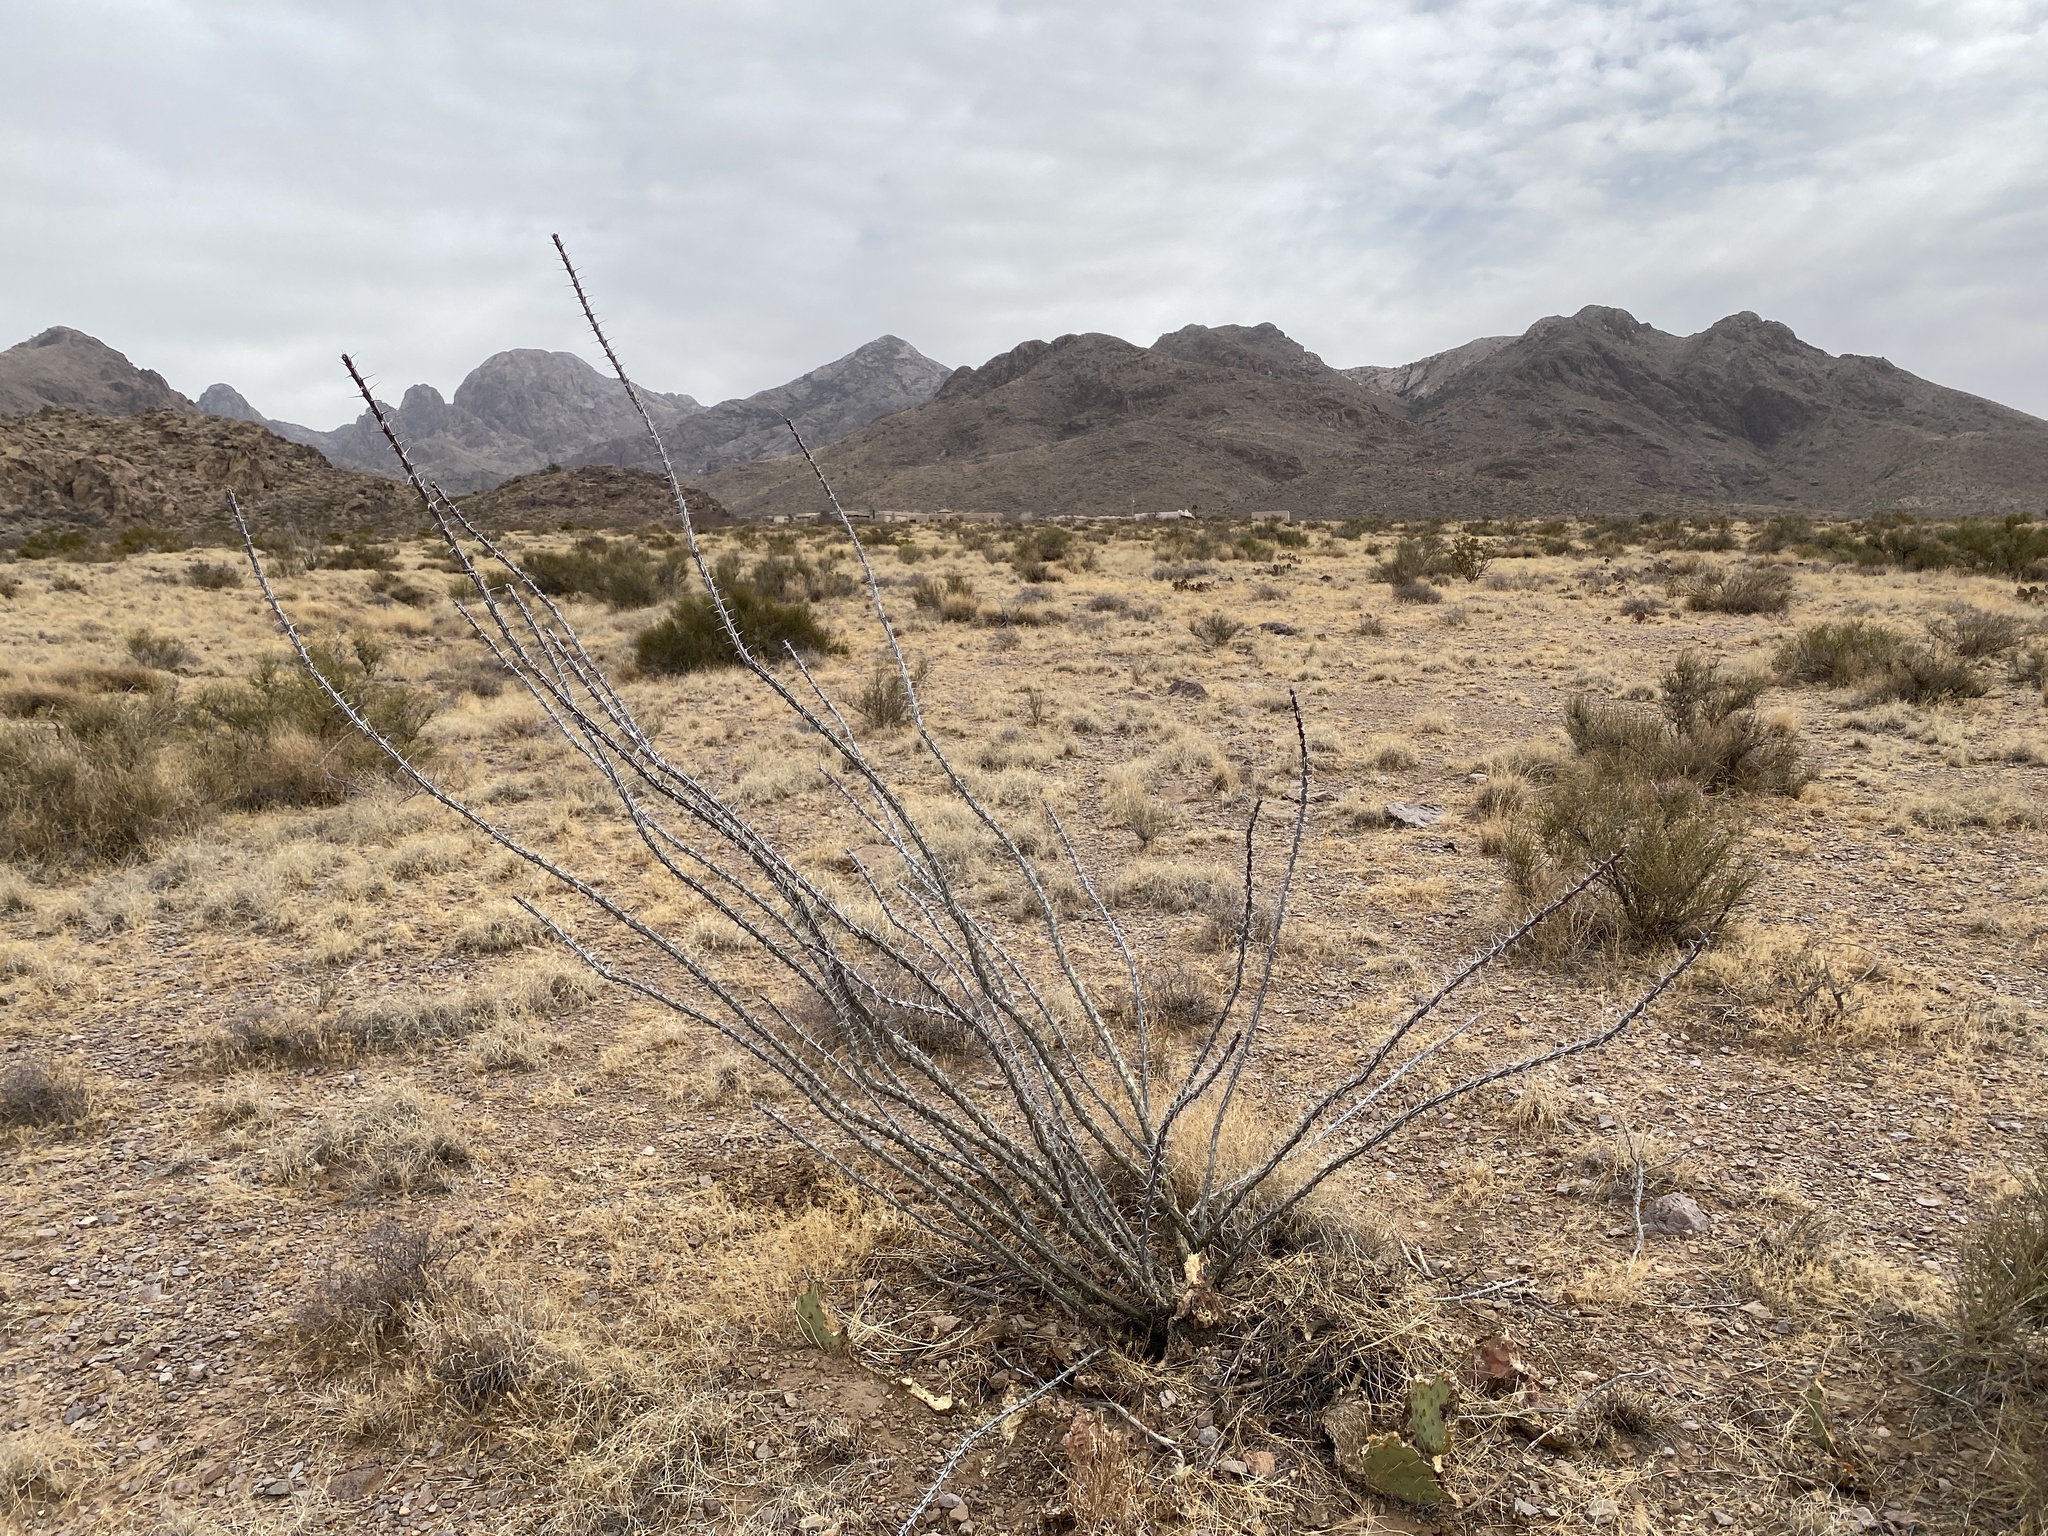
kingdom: Plantae
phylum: Tracheophyta
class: Magnoliopsida
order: Ericales
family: Fouquieriaceae
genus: Fouquieria
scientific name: Fouquieria splendens
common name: Vine-cactus
